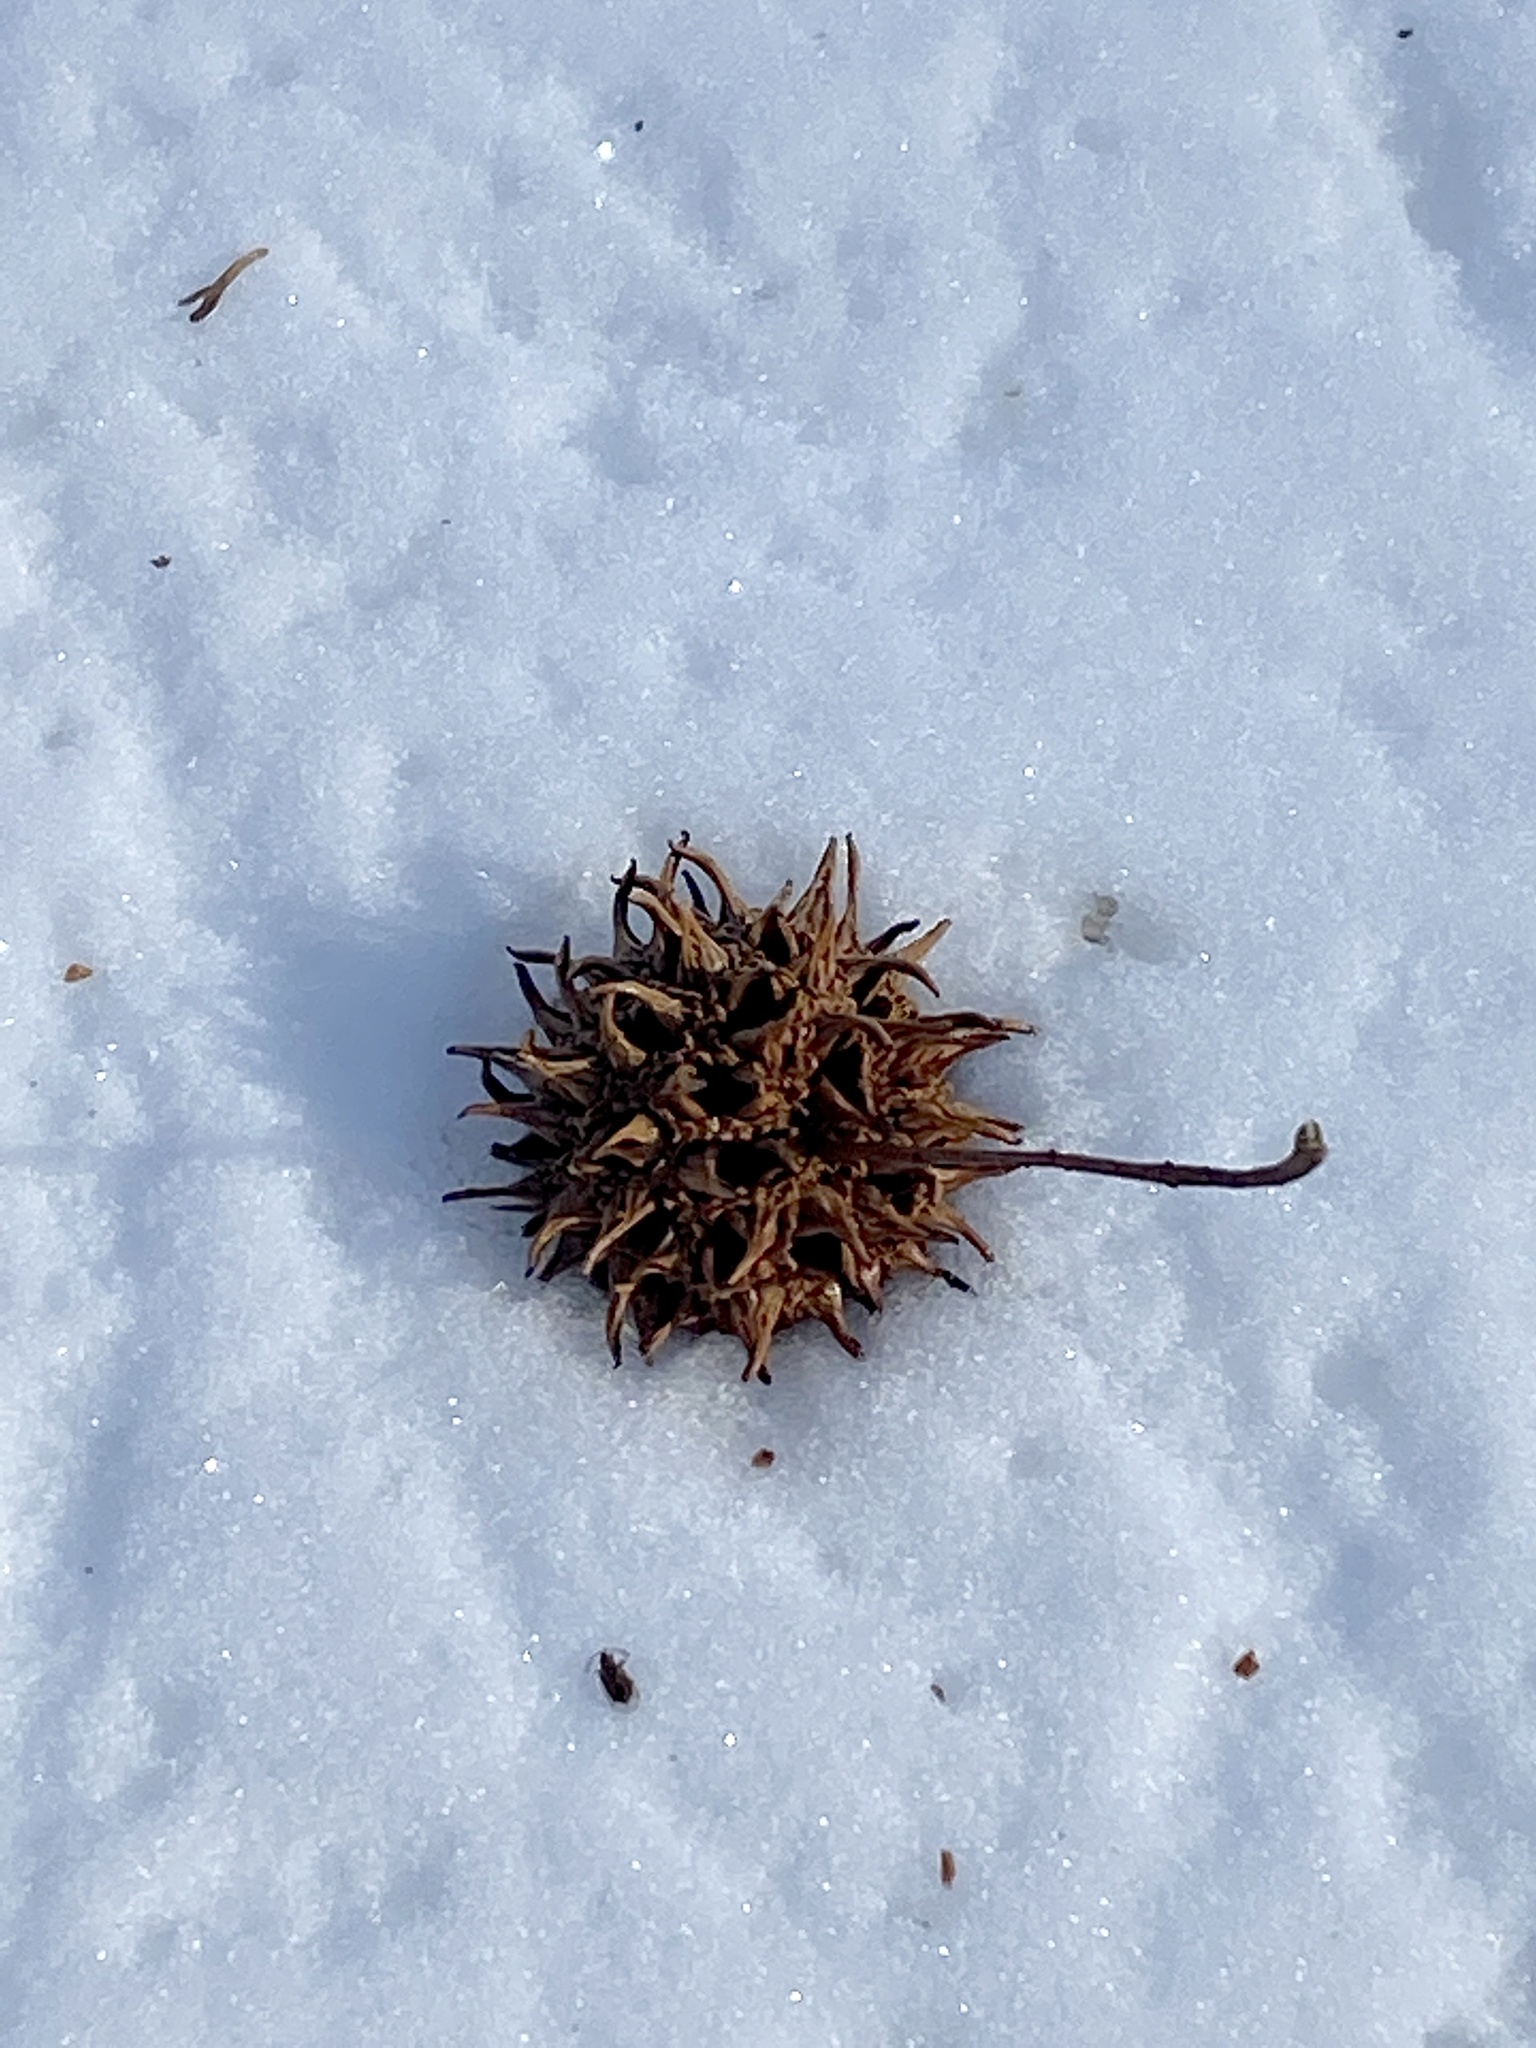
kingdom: Plantae
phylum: Tracheophyta
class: Magnoliopsida
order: Saxifragales
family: Altingiaceae
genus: Liquidambar
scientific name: Liquidambar styraciflua
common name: Sweet gum
